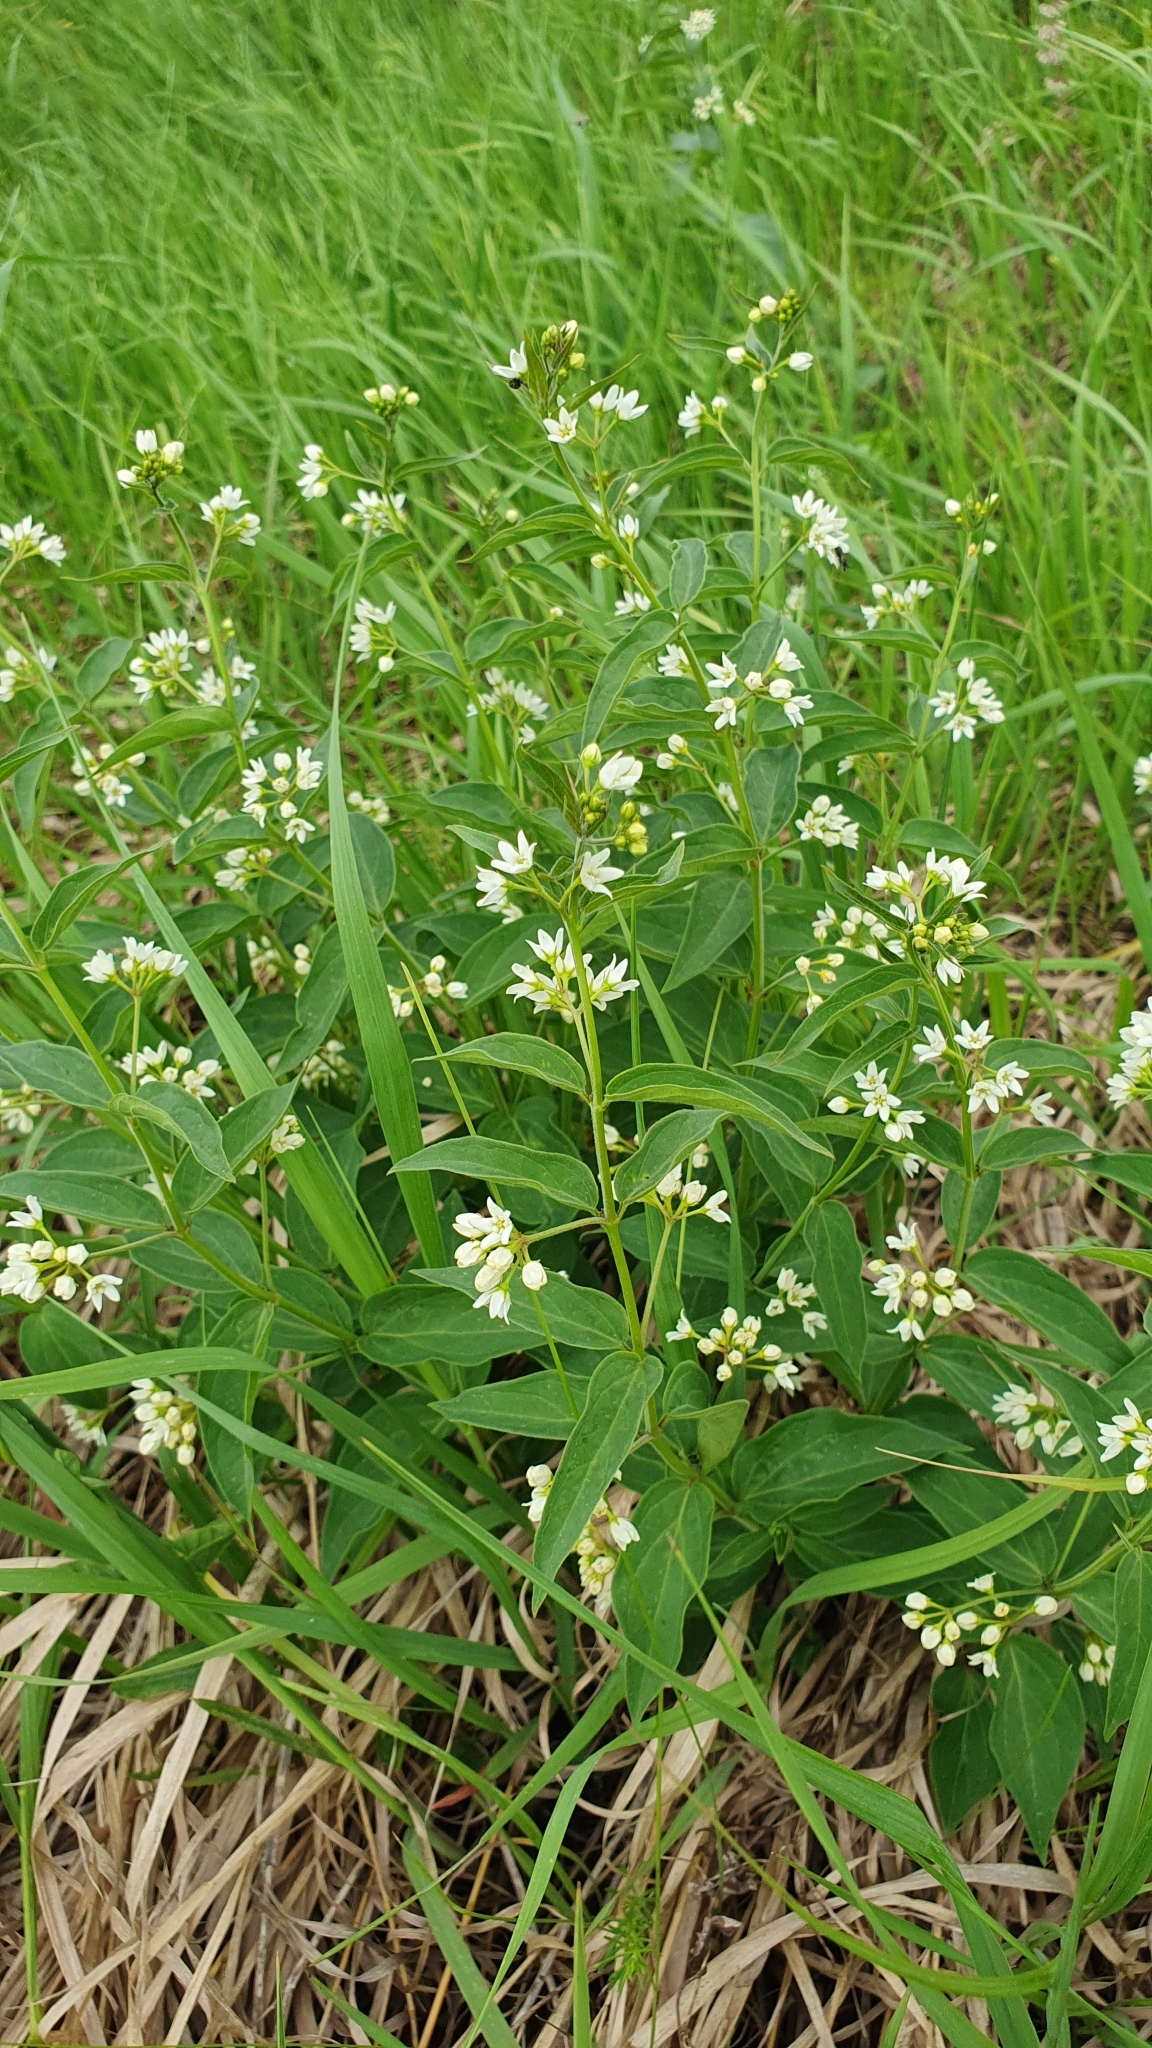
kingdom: Plantae
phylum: Tracheophyta
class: Magnoliopsida
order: Gentianales
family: Apocynaceae
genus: Vincetoxicum
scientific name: Vincetoxicum hirundinaria
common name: White swallowwort
